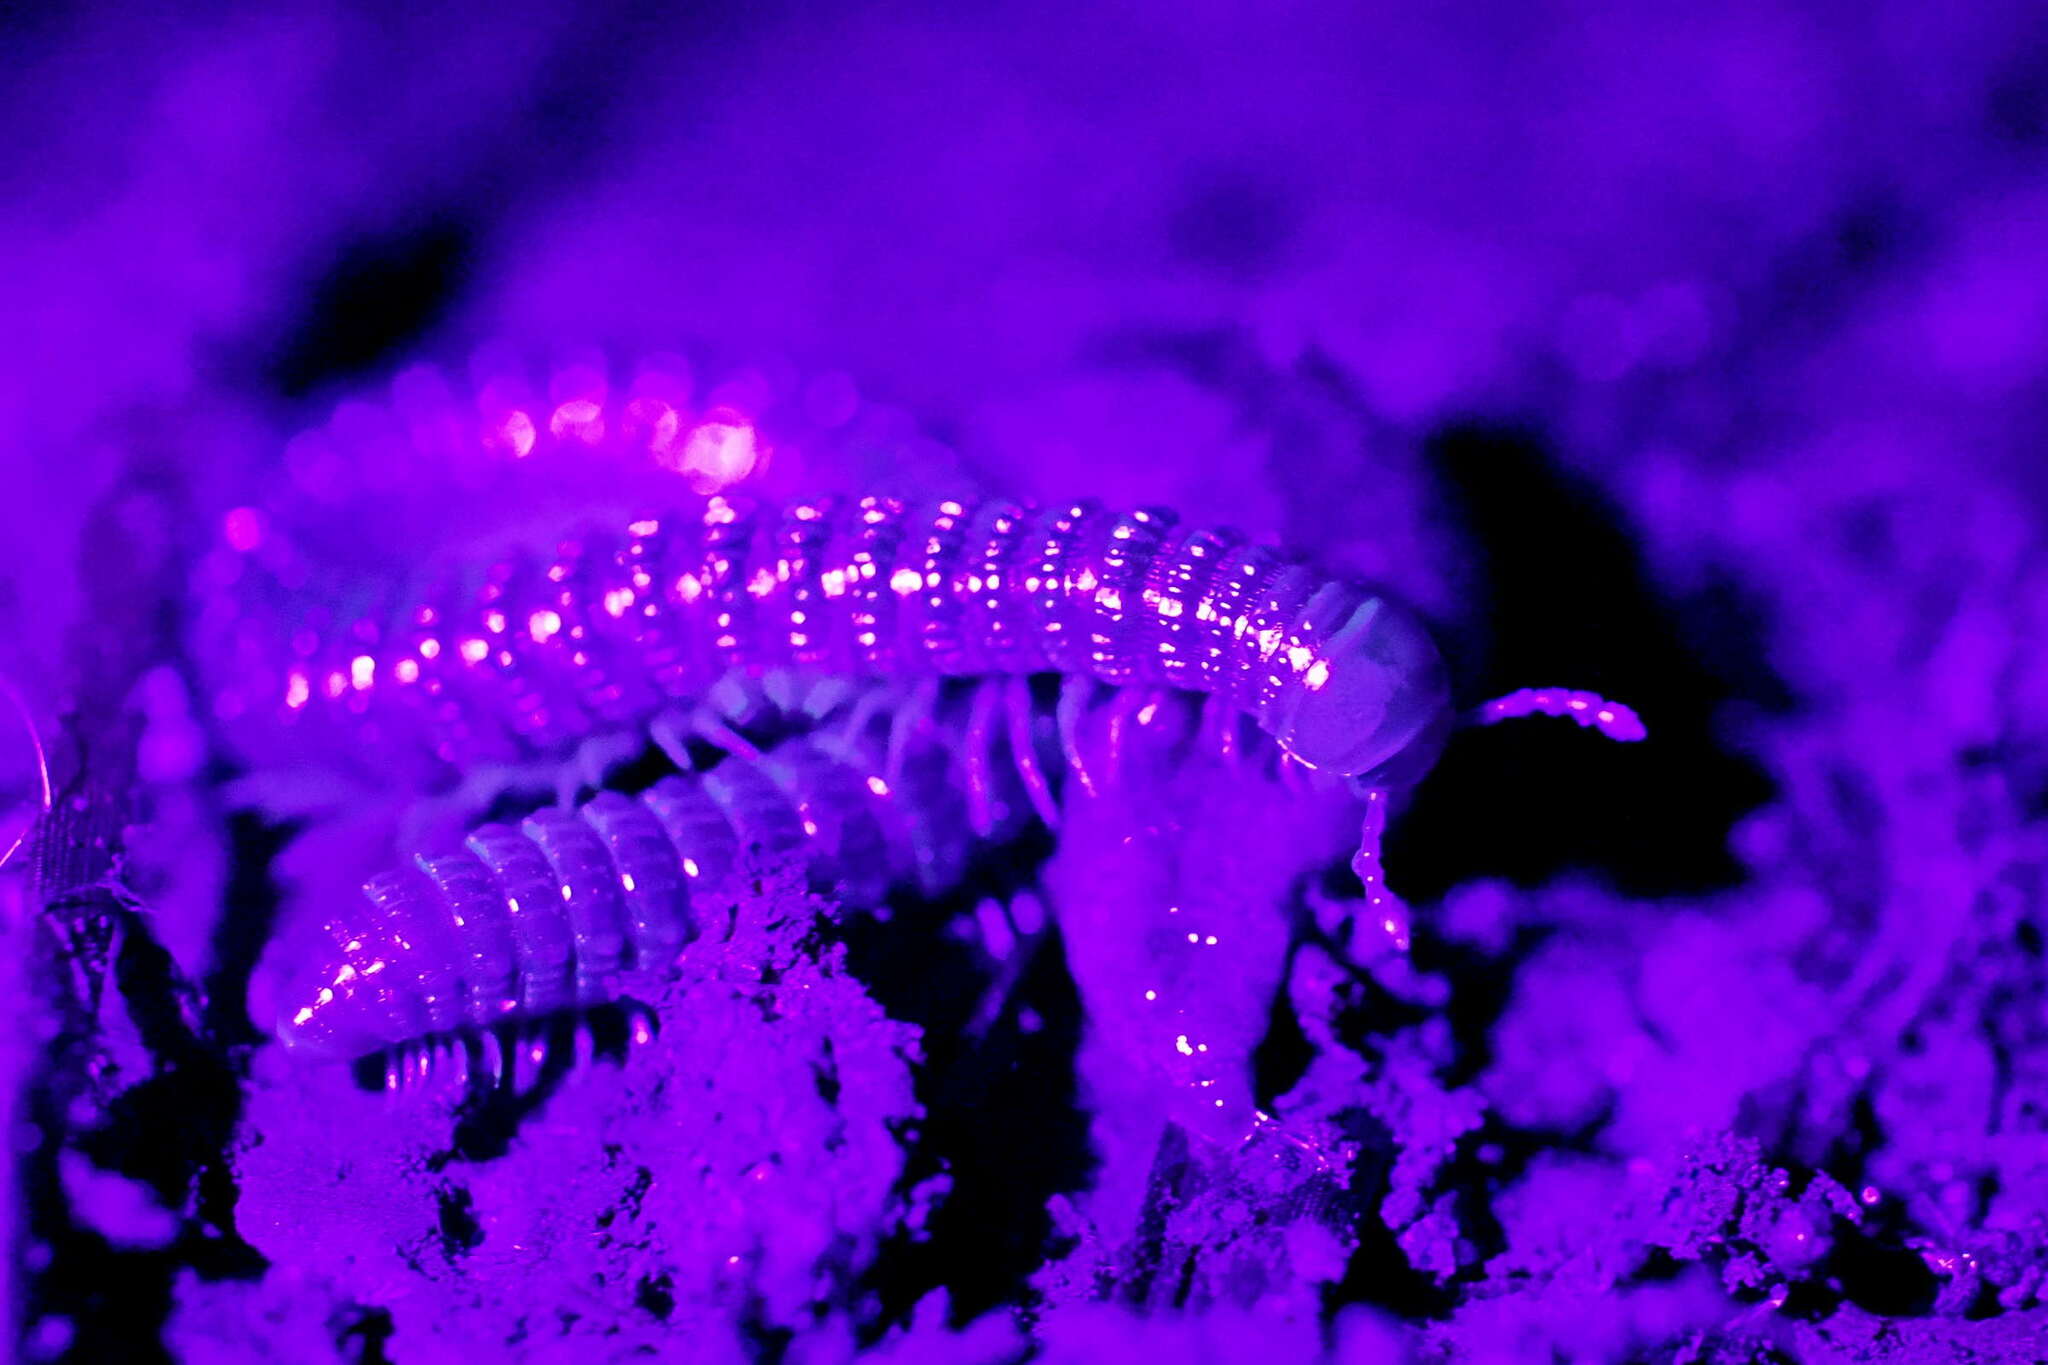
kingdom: Animalia
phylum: Arthropoda
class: Diplopoda
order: Spirostreptida
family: Cambalidae
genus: Cambala
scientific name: Cambala annulata
